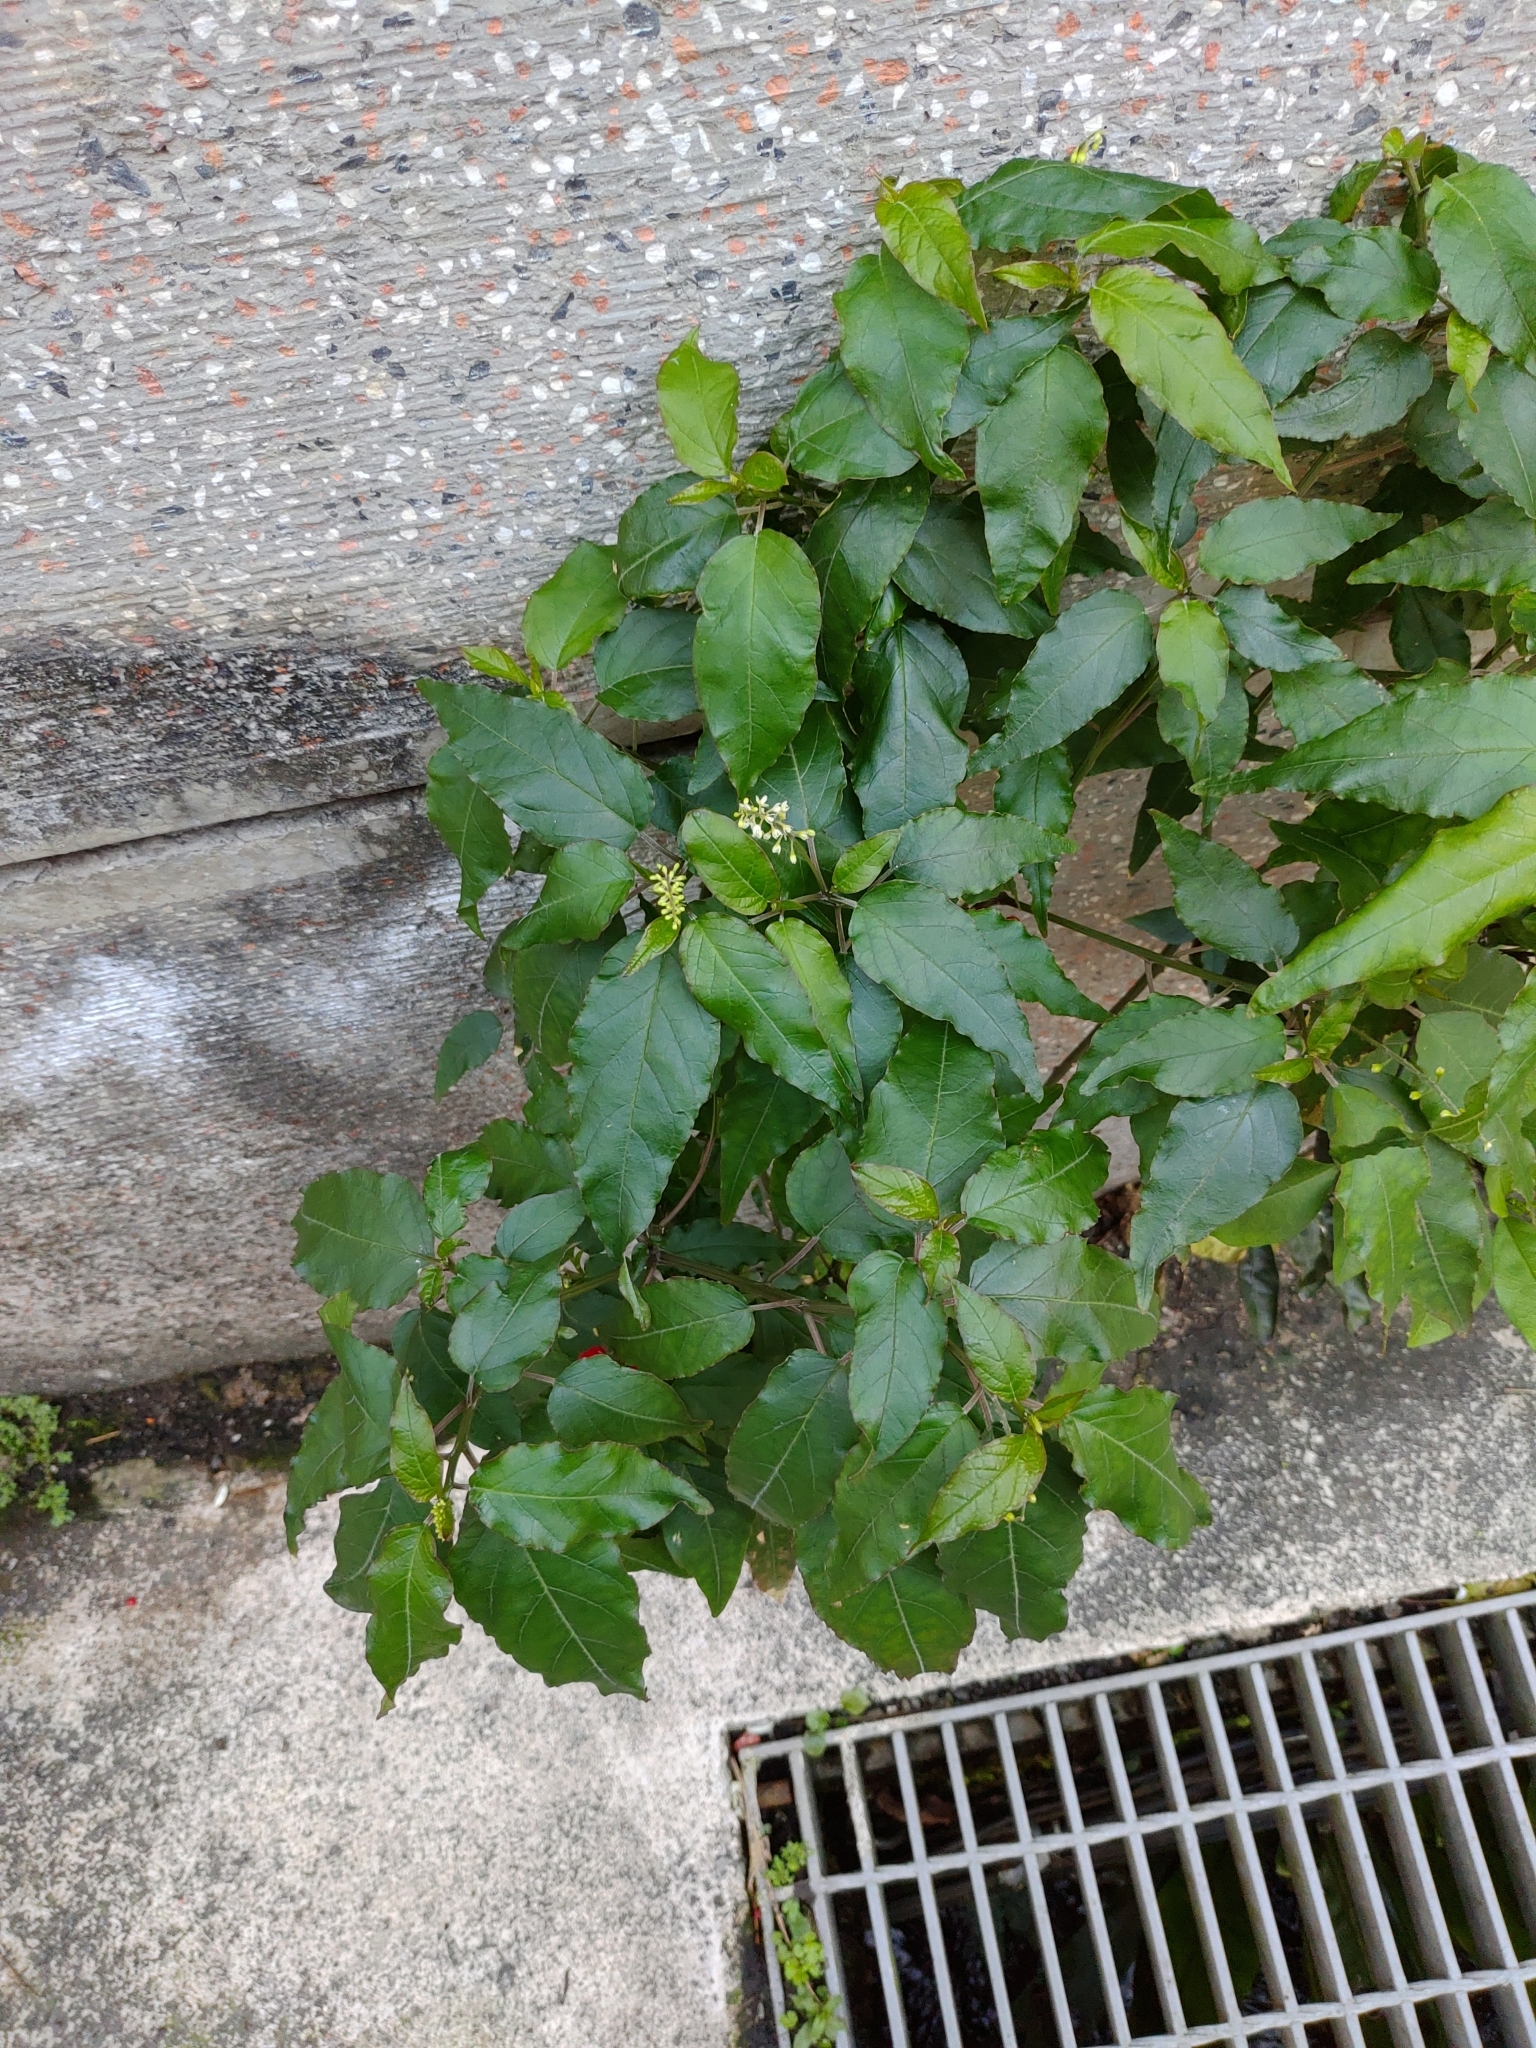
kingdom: Plantae
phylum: Tracheophyta
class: Magnoliopsida
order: Caryophyllales
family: Phytolaccaceae
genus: Rivina
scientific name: Rivina humilis
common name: Rougeplant
